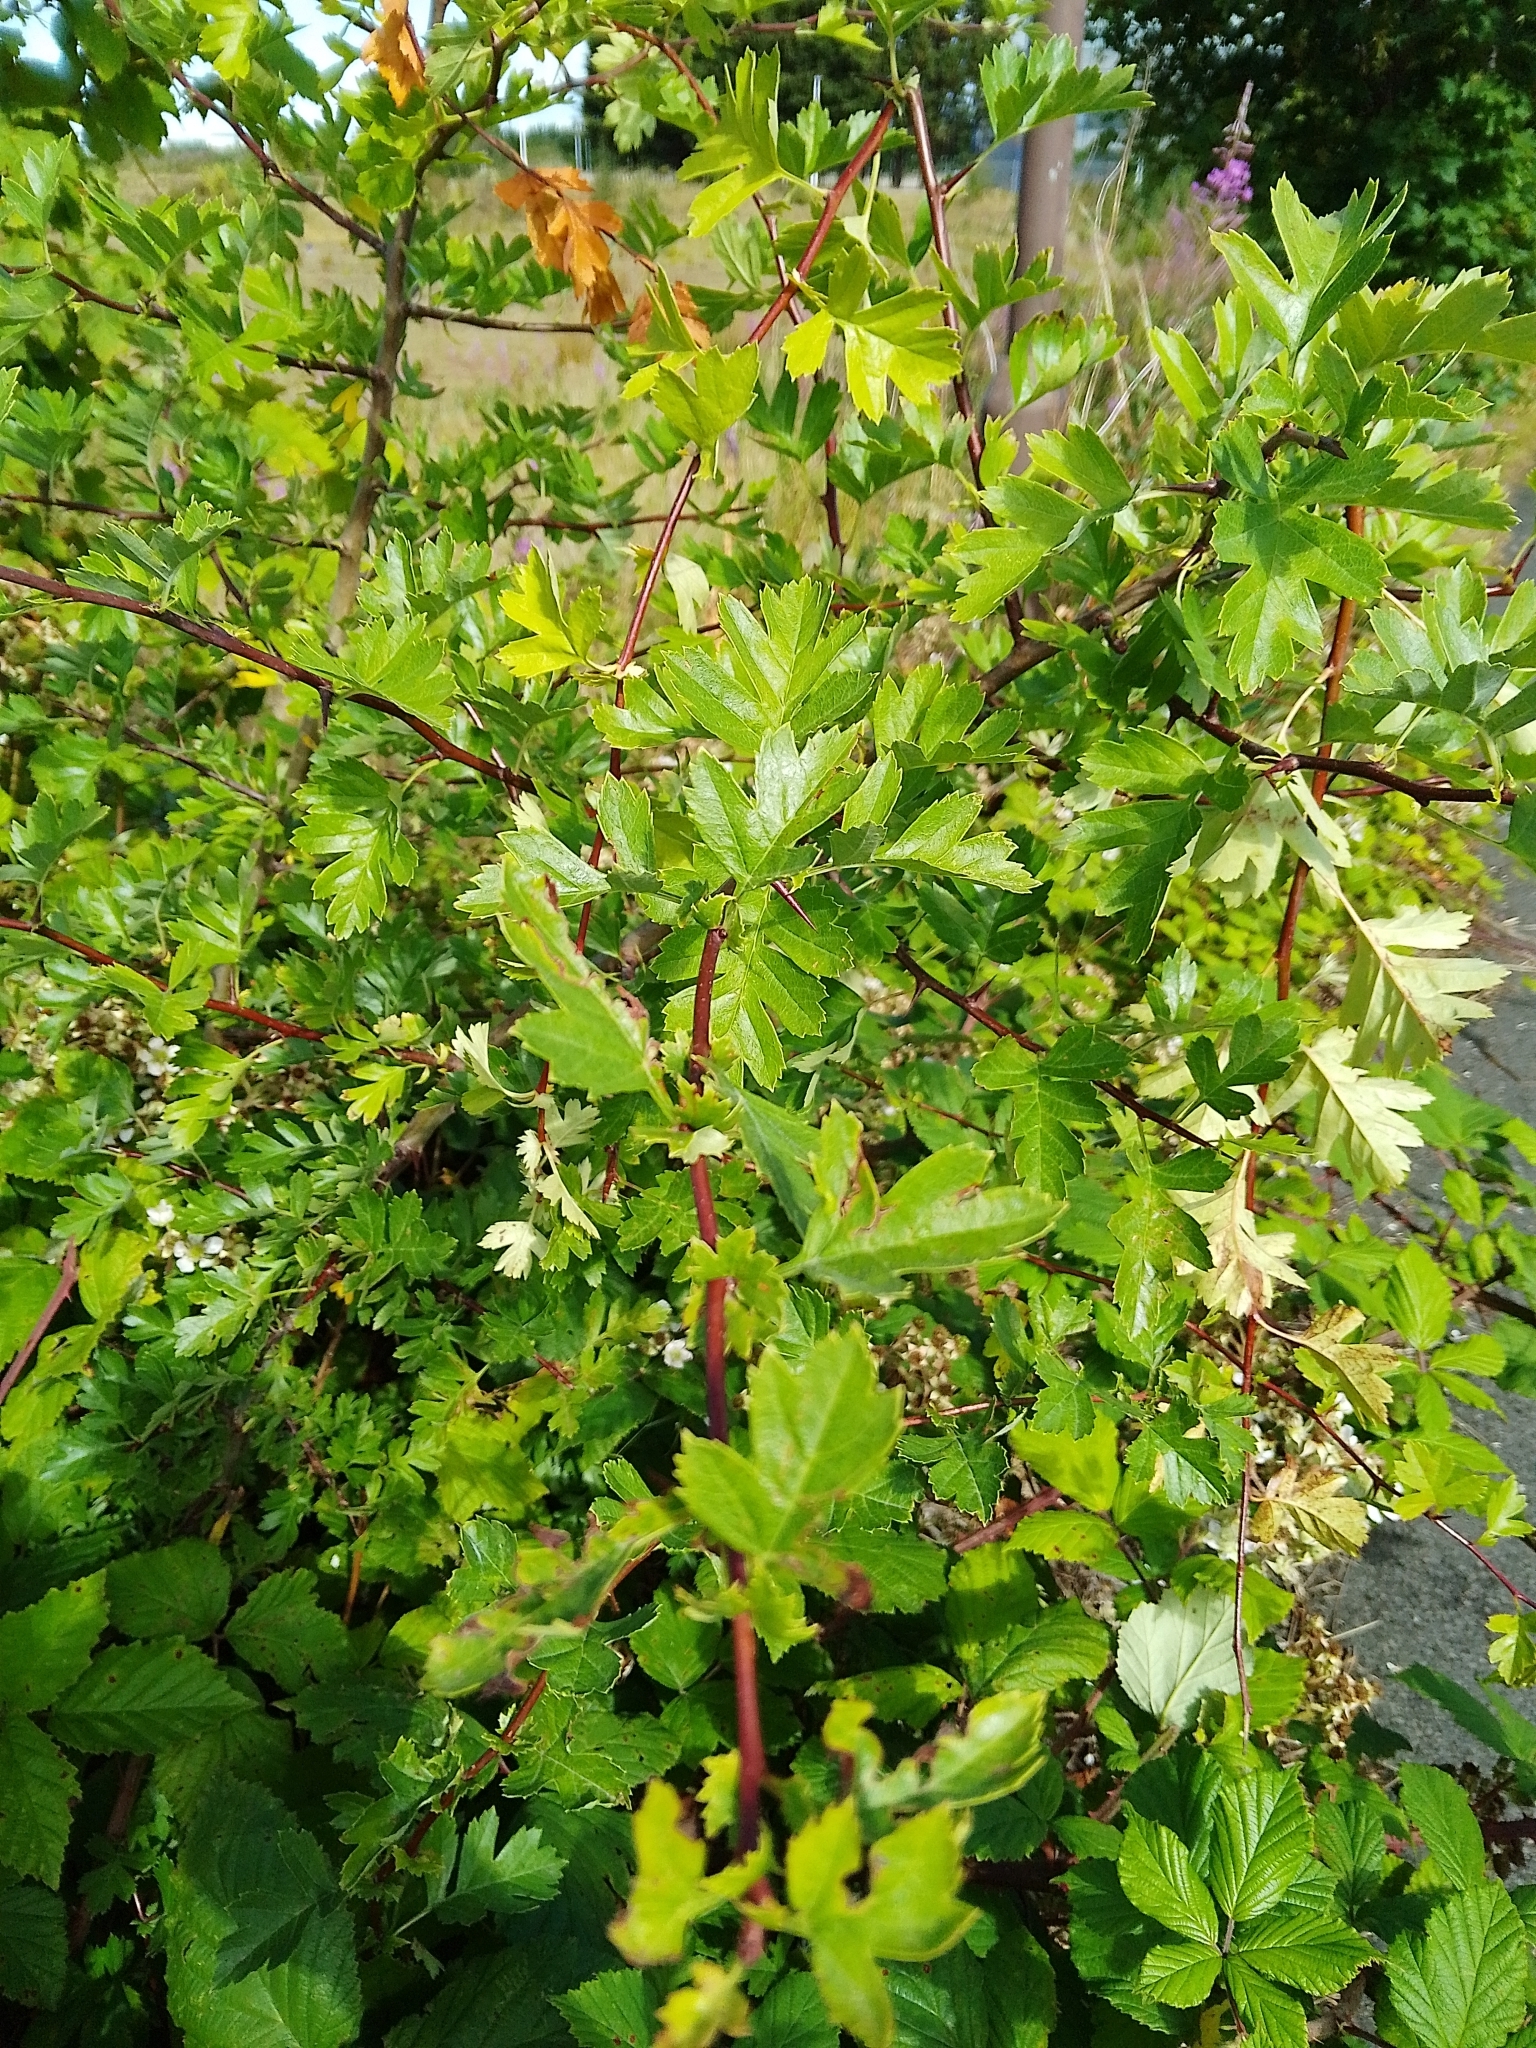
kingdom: Plantae
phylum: Tracheophyta
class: Magnoliopsida
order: Rosales
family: Rosaceae
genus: Crataegus
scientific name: Crataegus monogyna
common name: Hawthorn
